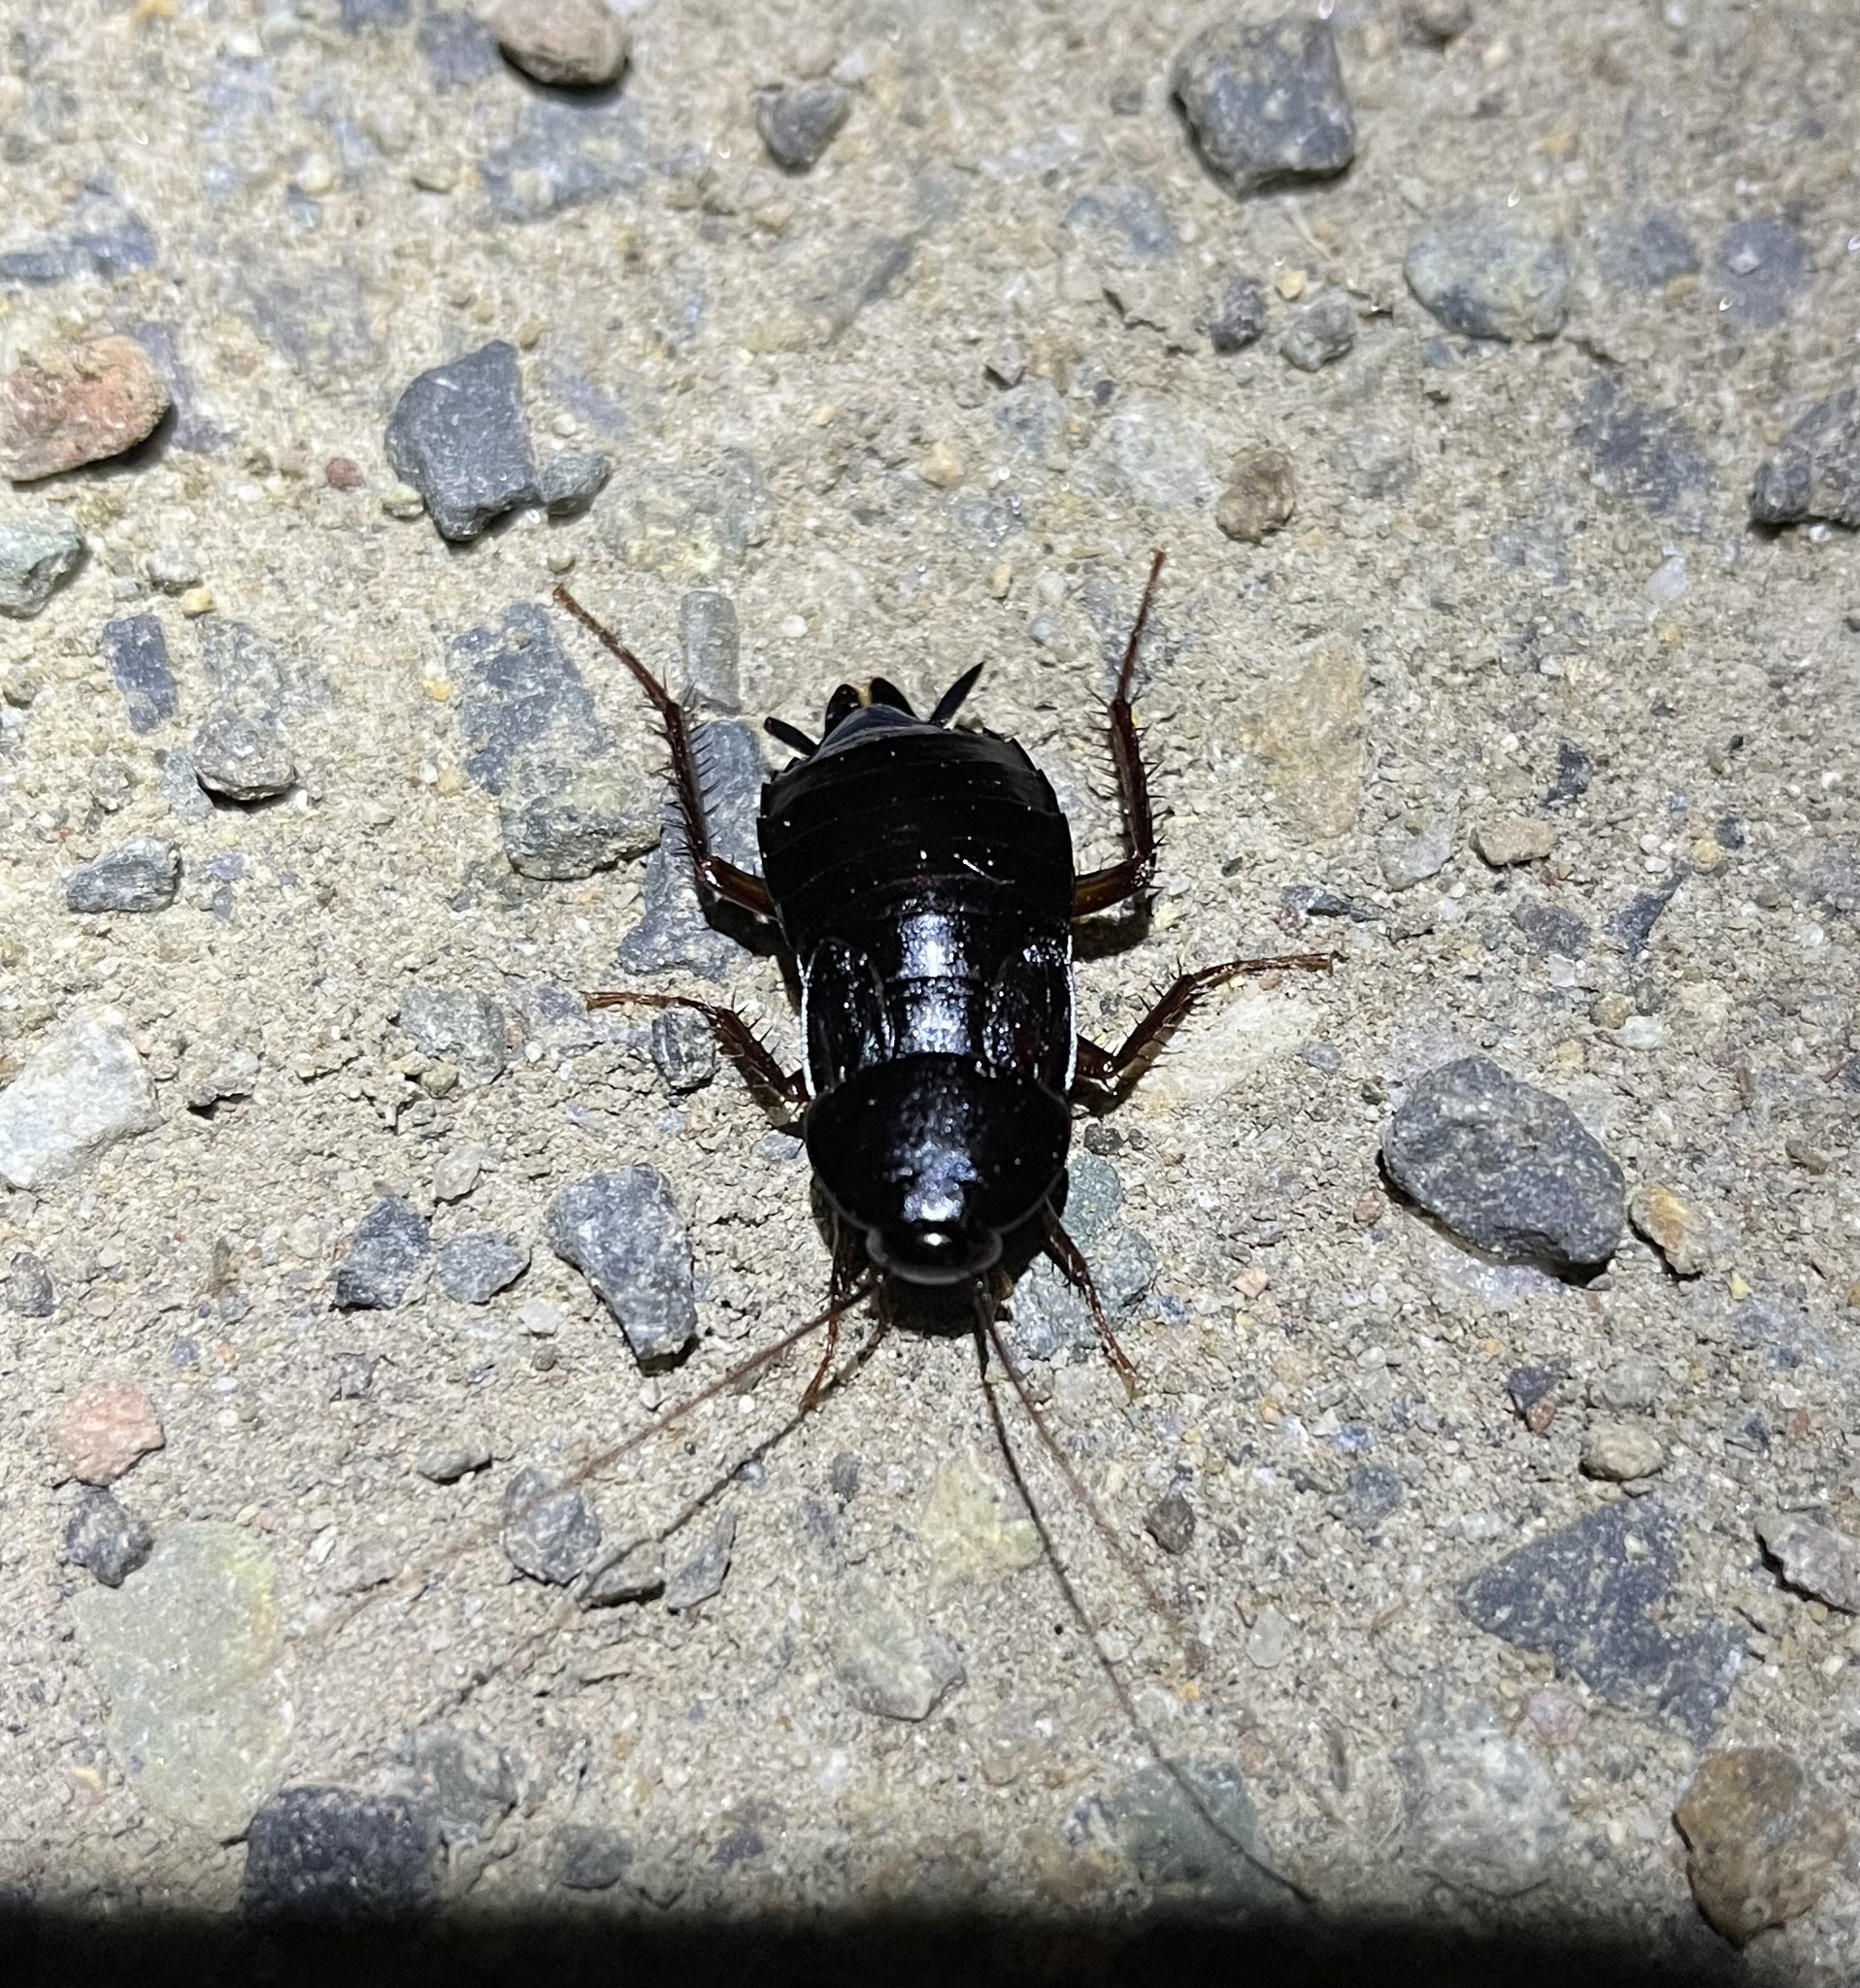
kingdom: Animalia
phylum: Arthropoda
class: Insecta
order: Blattodea
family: Blattidae
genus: Blatta
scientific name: Blatta orientalis
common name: Oriental cockroach
